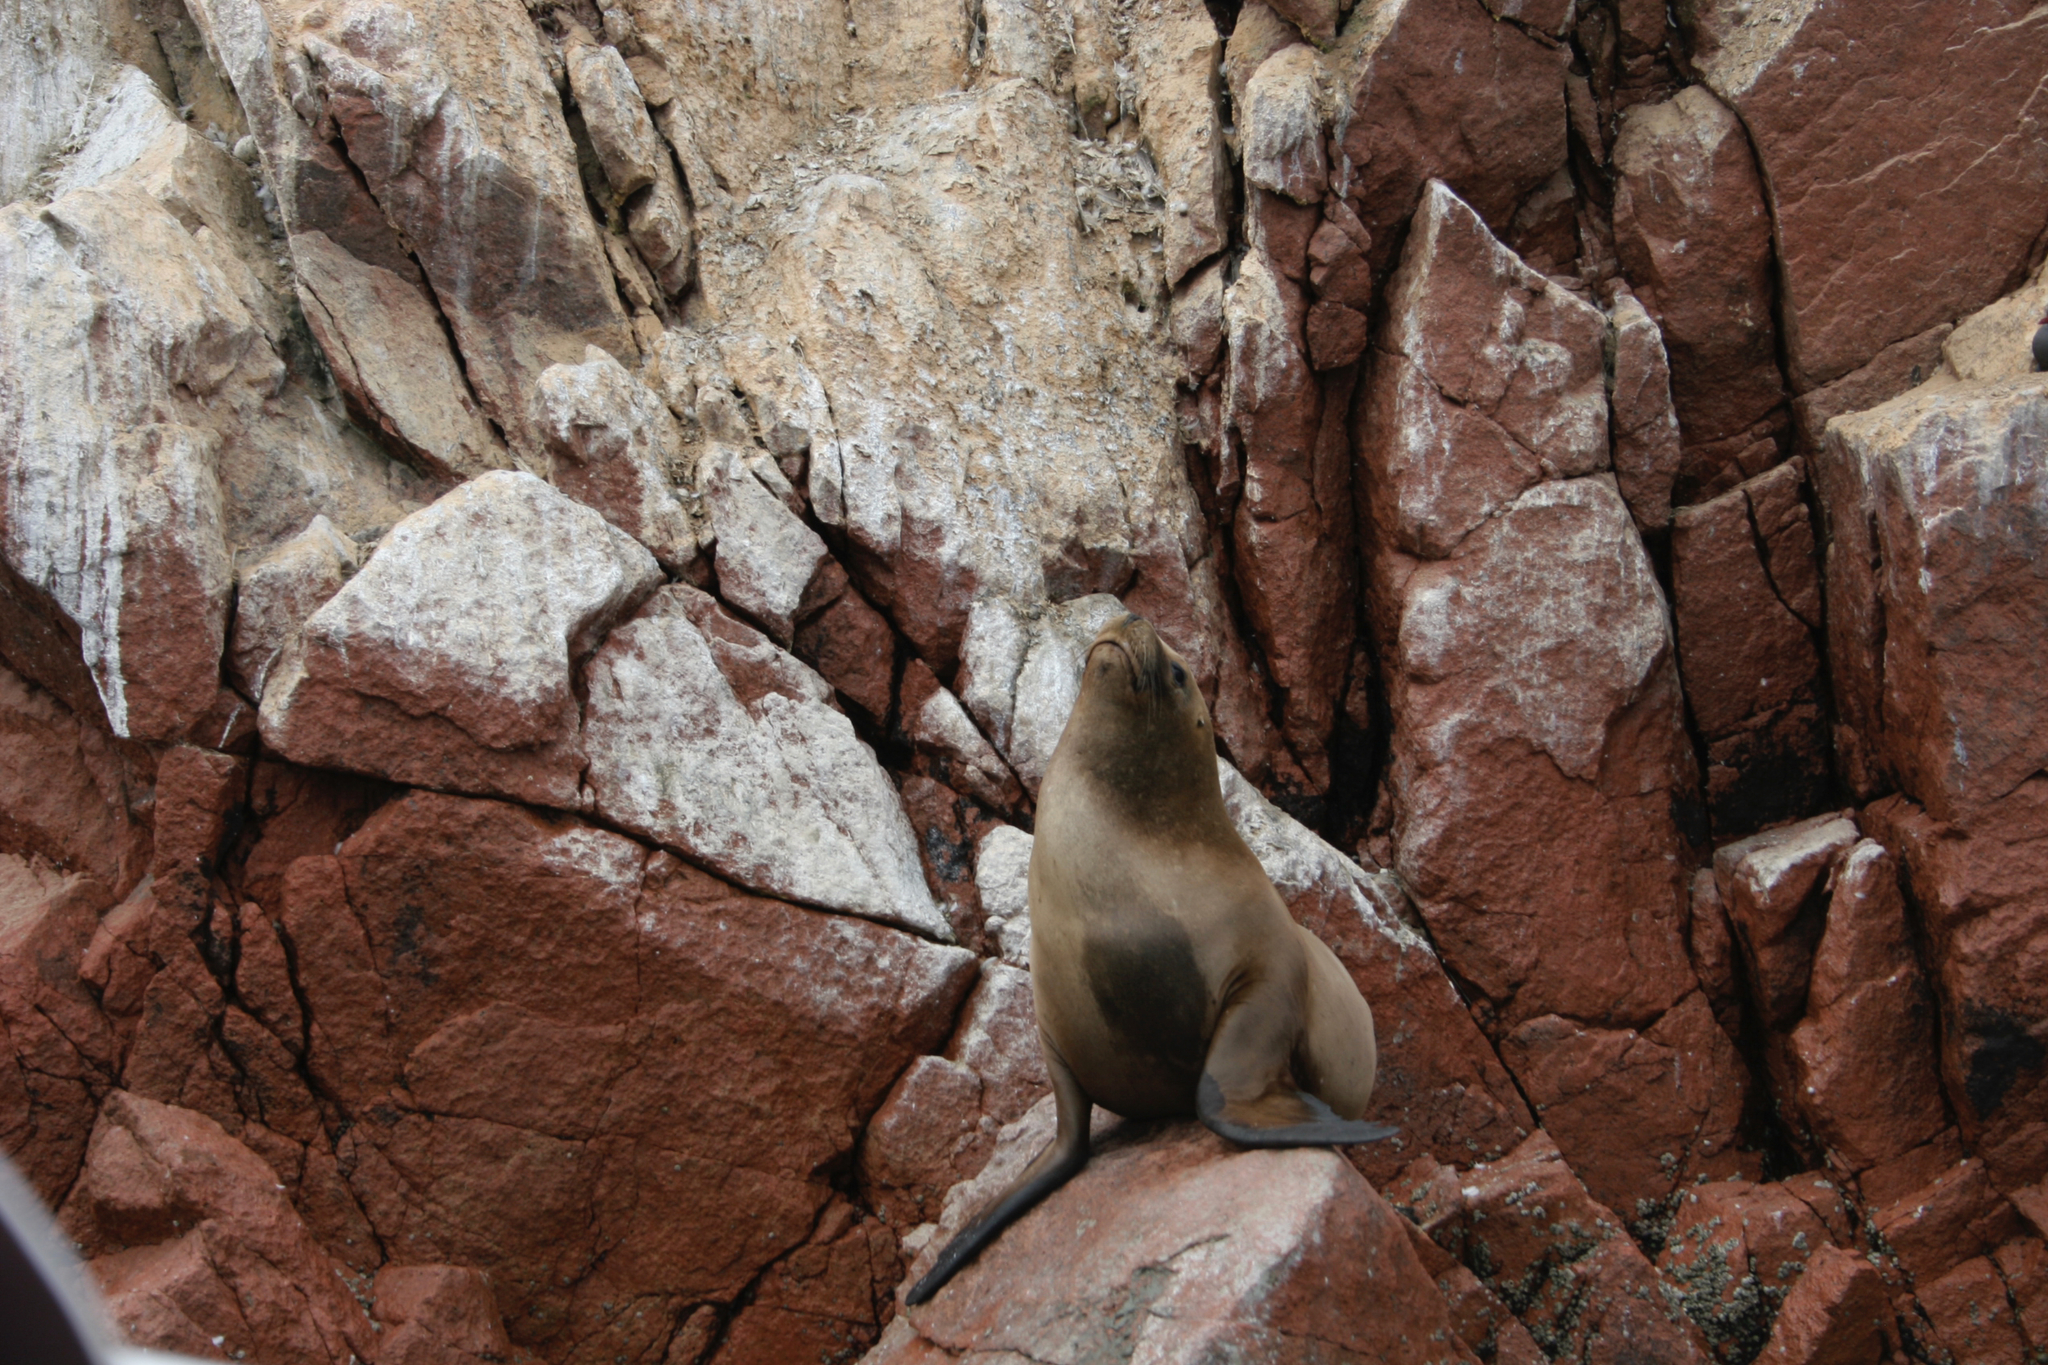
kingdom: Animalia
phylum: Chordata
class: Mammalia
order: Carnivora
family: Otariidae
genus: Otaria
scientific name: Otaria byronia
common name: South american sea lion
